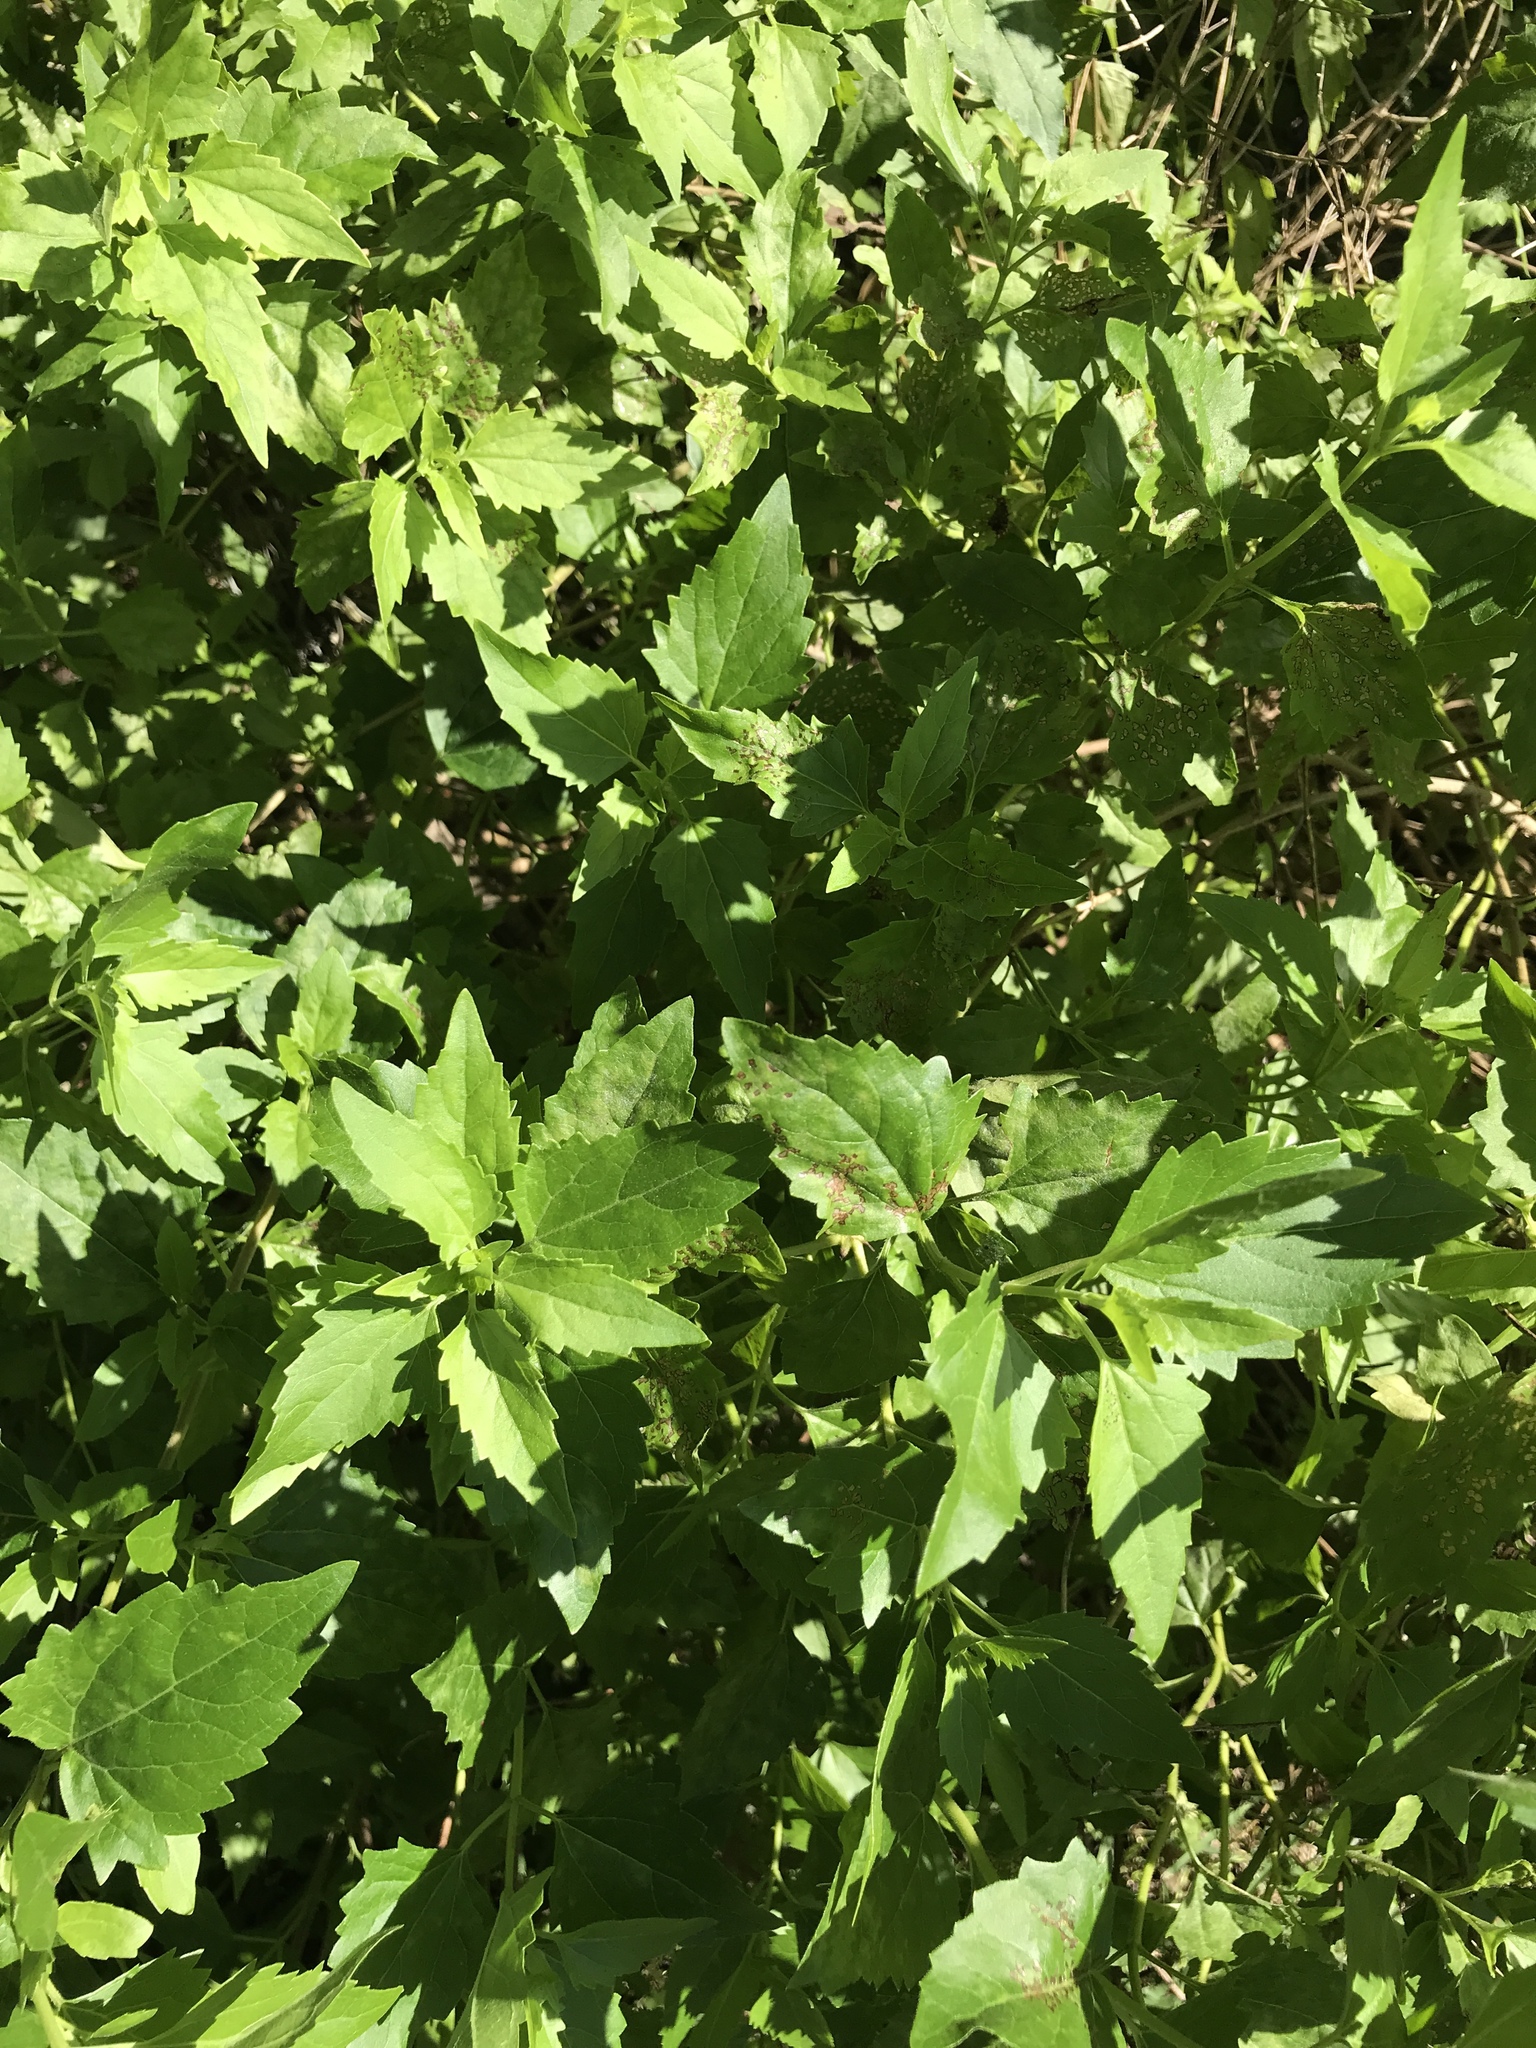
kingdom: Plantae
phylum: Tracheophyta
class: Magnoliopsida
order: Asterales
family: Asteraceae
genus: Ageratina
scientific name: Ageratina havanensis
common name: Havana snakeroot
